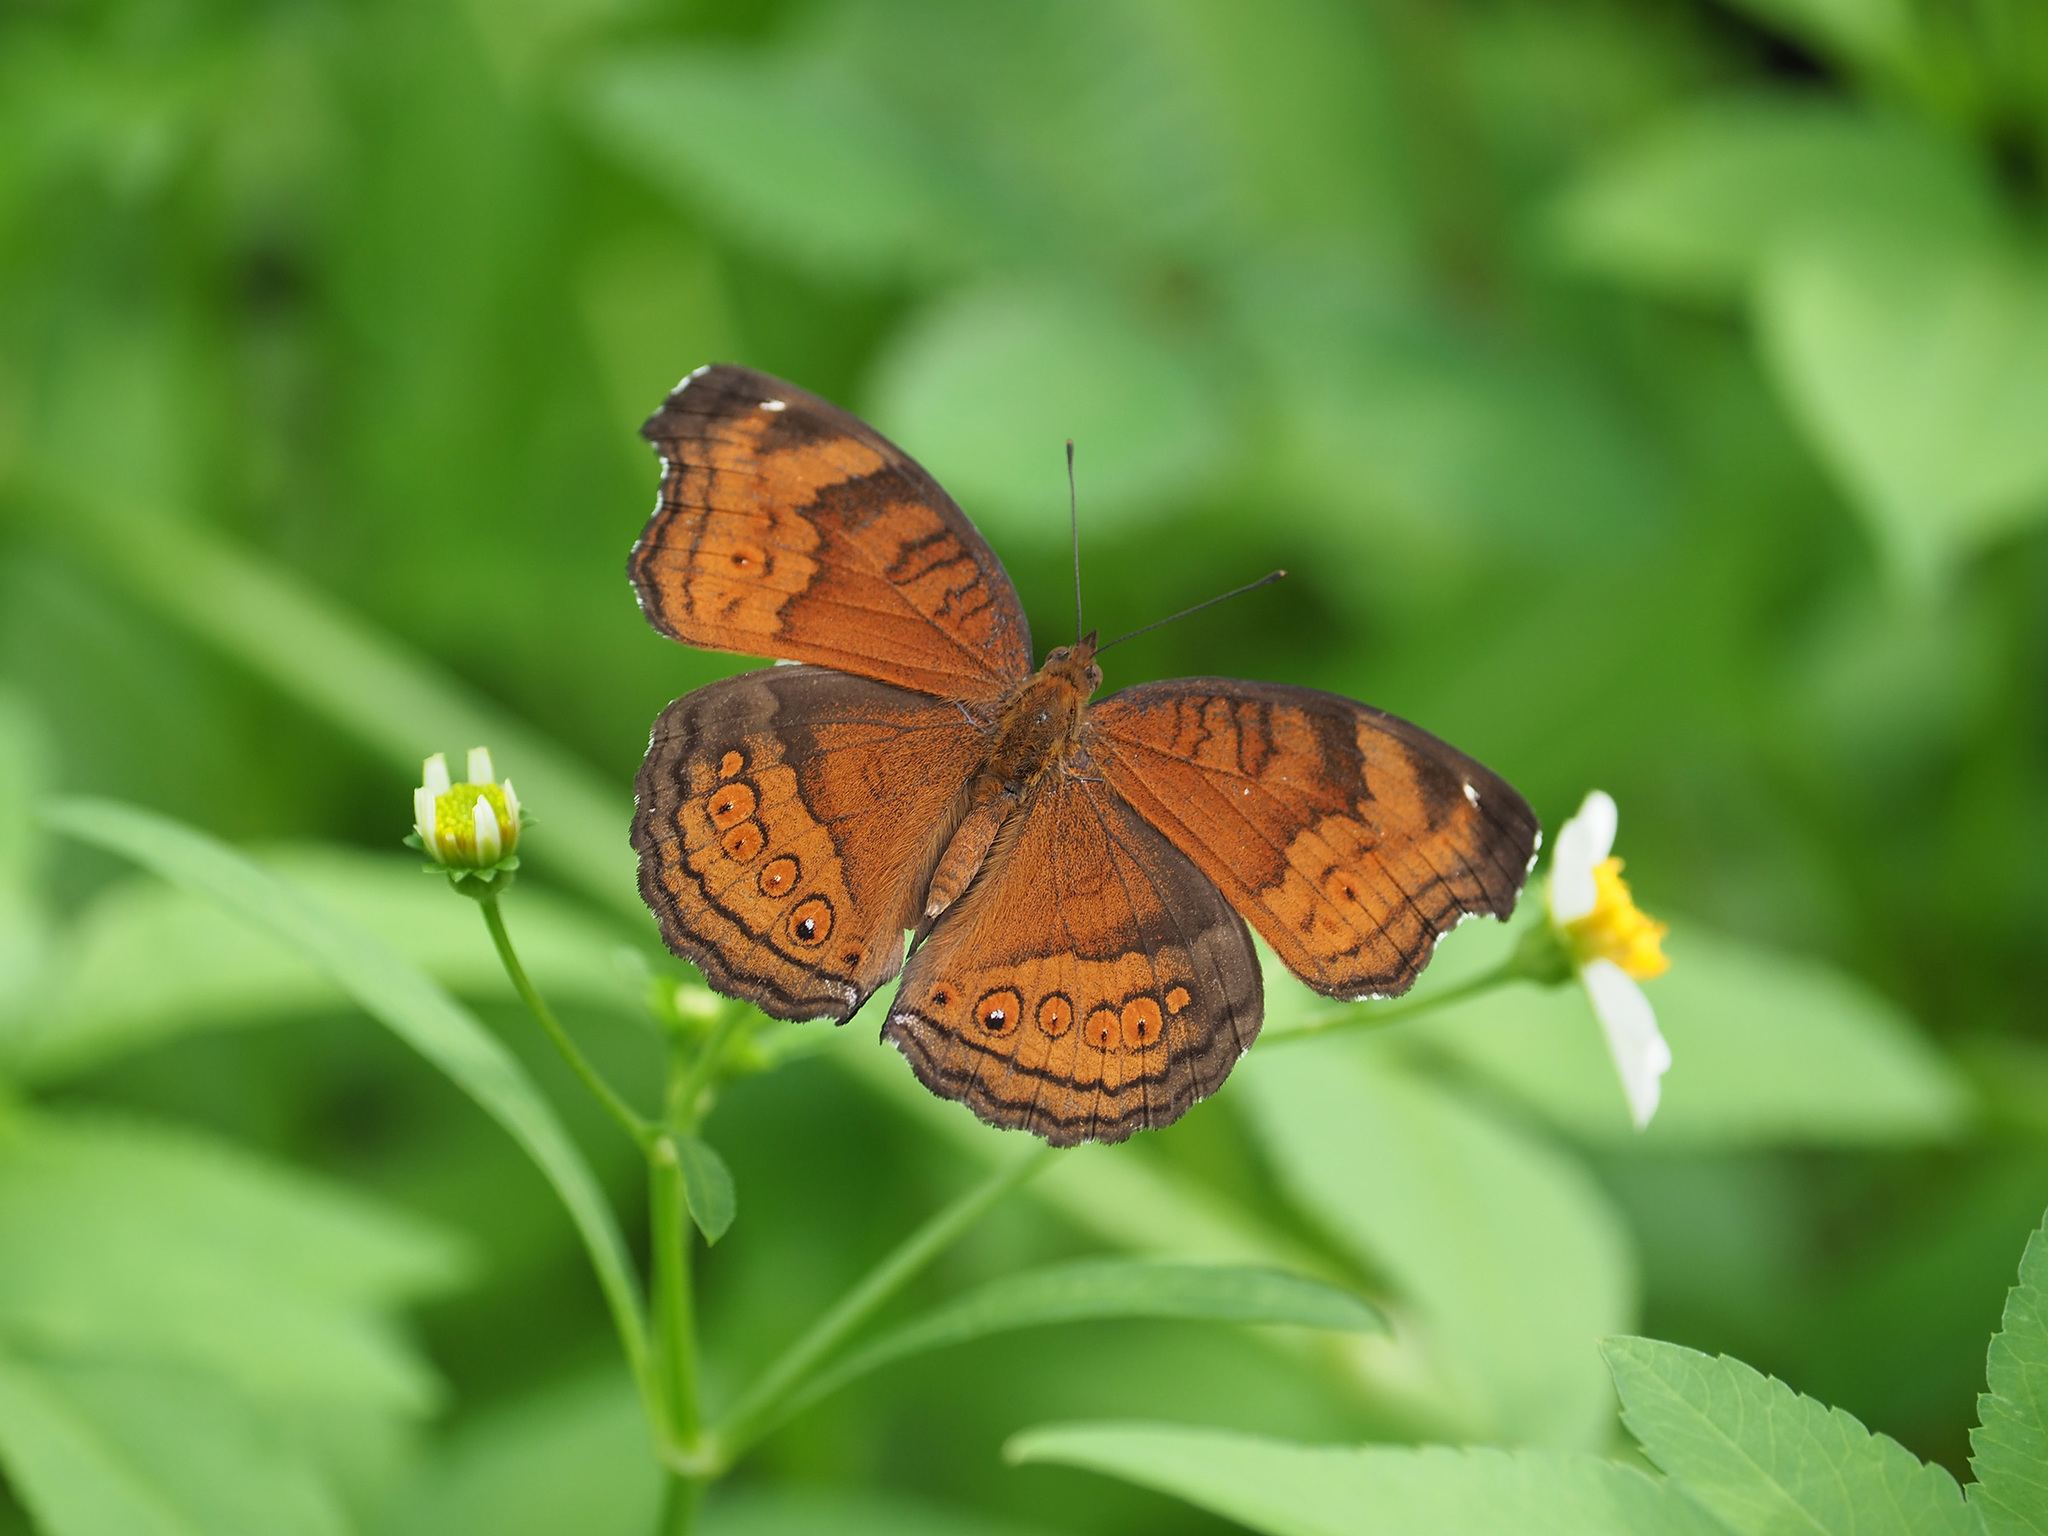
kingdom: Animalia
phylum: Arthropoda
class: Insecta
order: Lepidoptera
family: Nymphalidae
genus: Junonia
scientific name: Junonia hedonia
